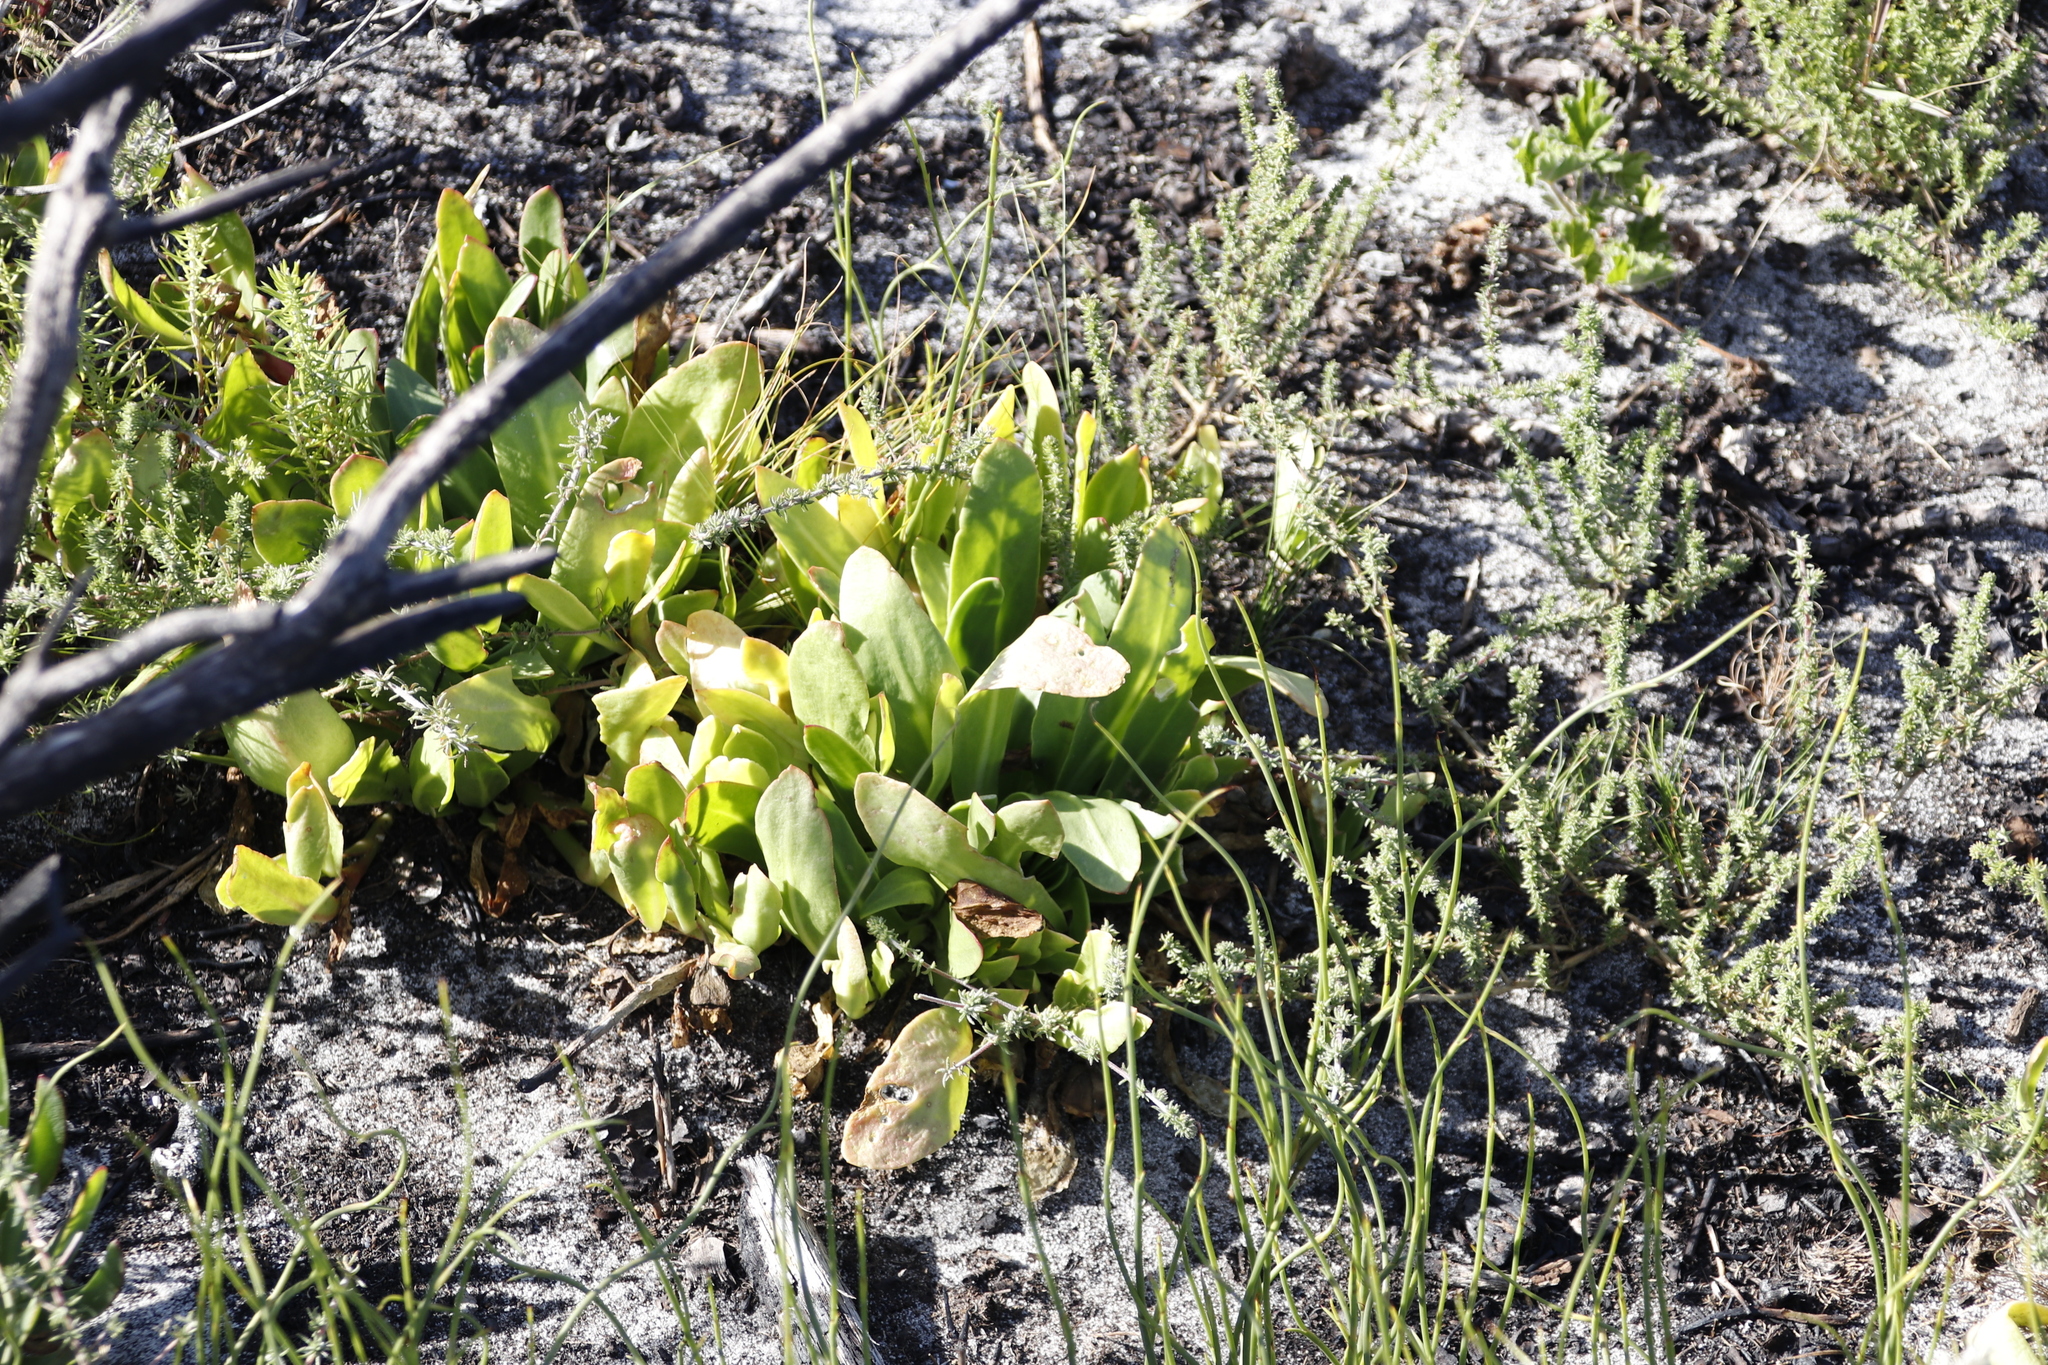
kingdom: Plantae
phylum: Tracheophyta
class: Magnoliopsida
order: Caryophyllales
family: Aizoaceae
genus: Skiatophytum
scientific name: Skiatophytum tripolium
